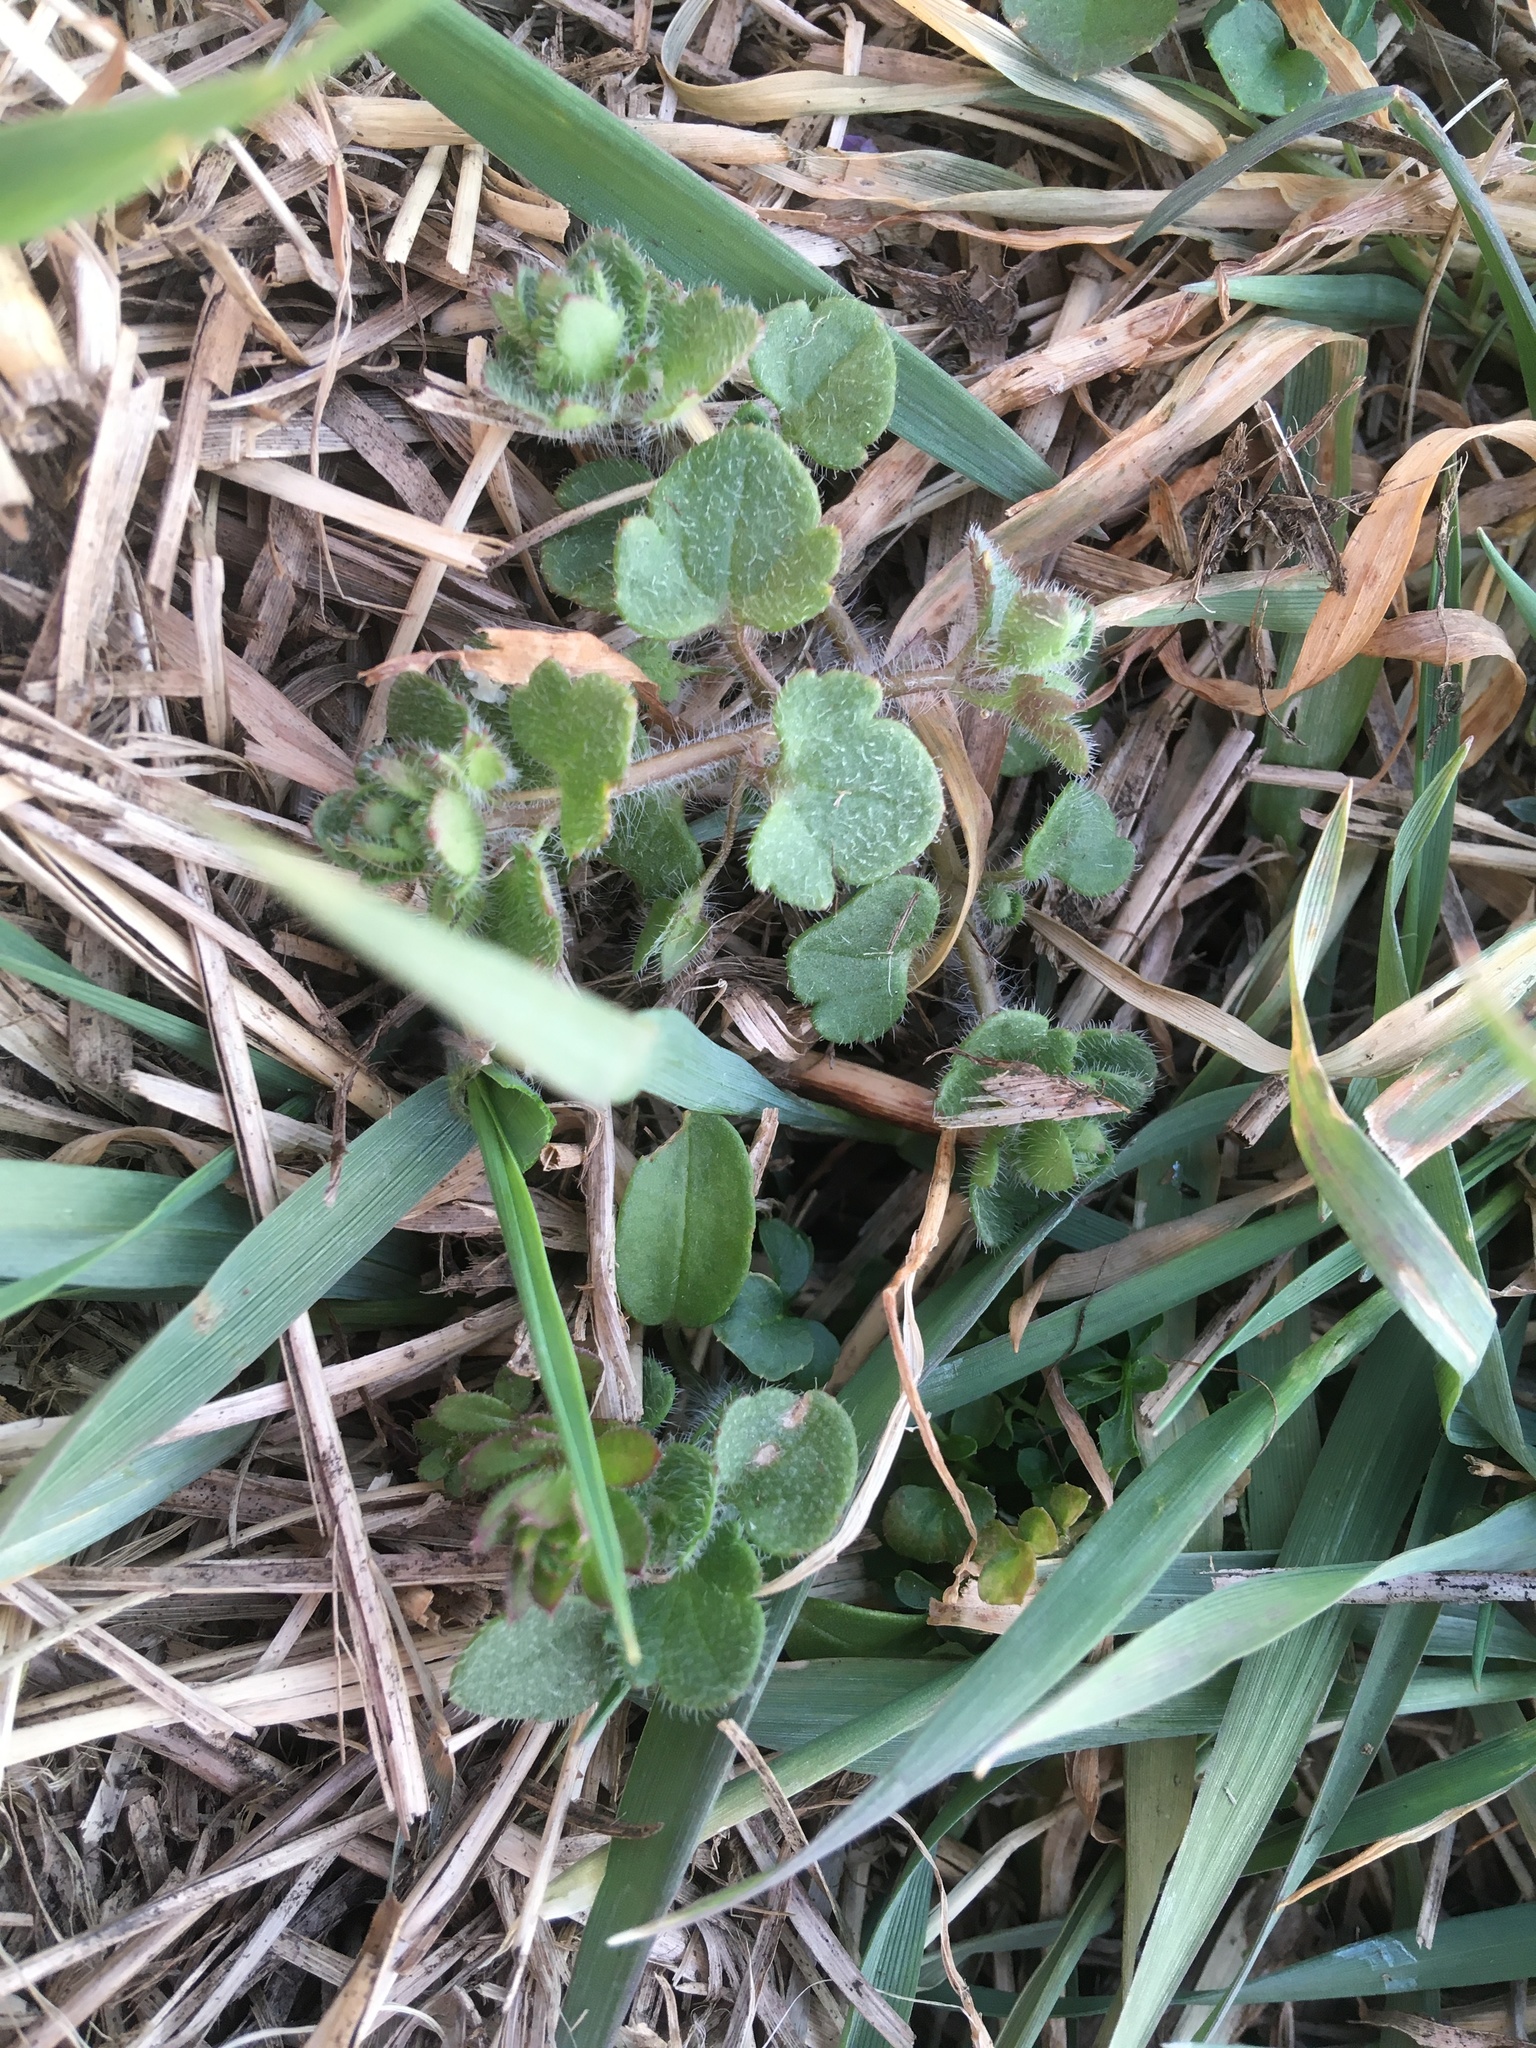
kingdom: Plantae
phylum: Tracheophyta
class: Magnoliopsida
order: Lamiales
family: Plantaginaceae
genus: Veronica
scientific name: Veronica hederifolia
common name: Ivy-leaved speedwell
